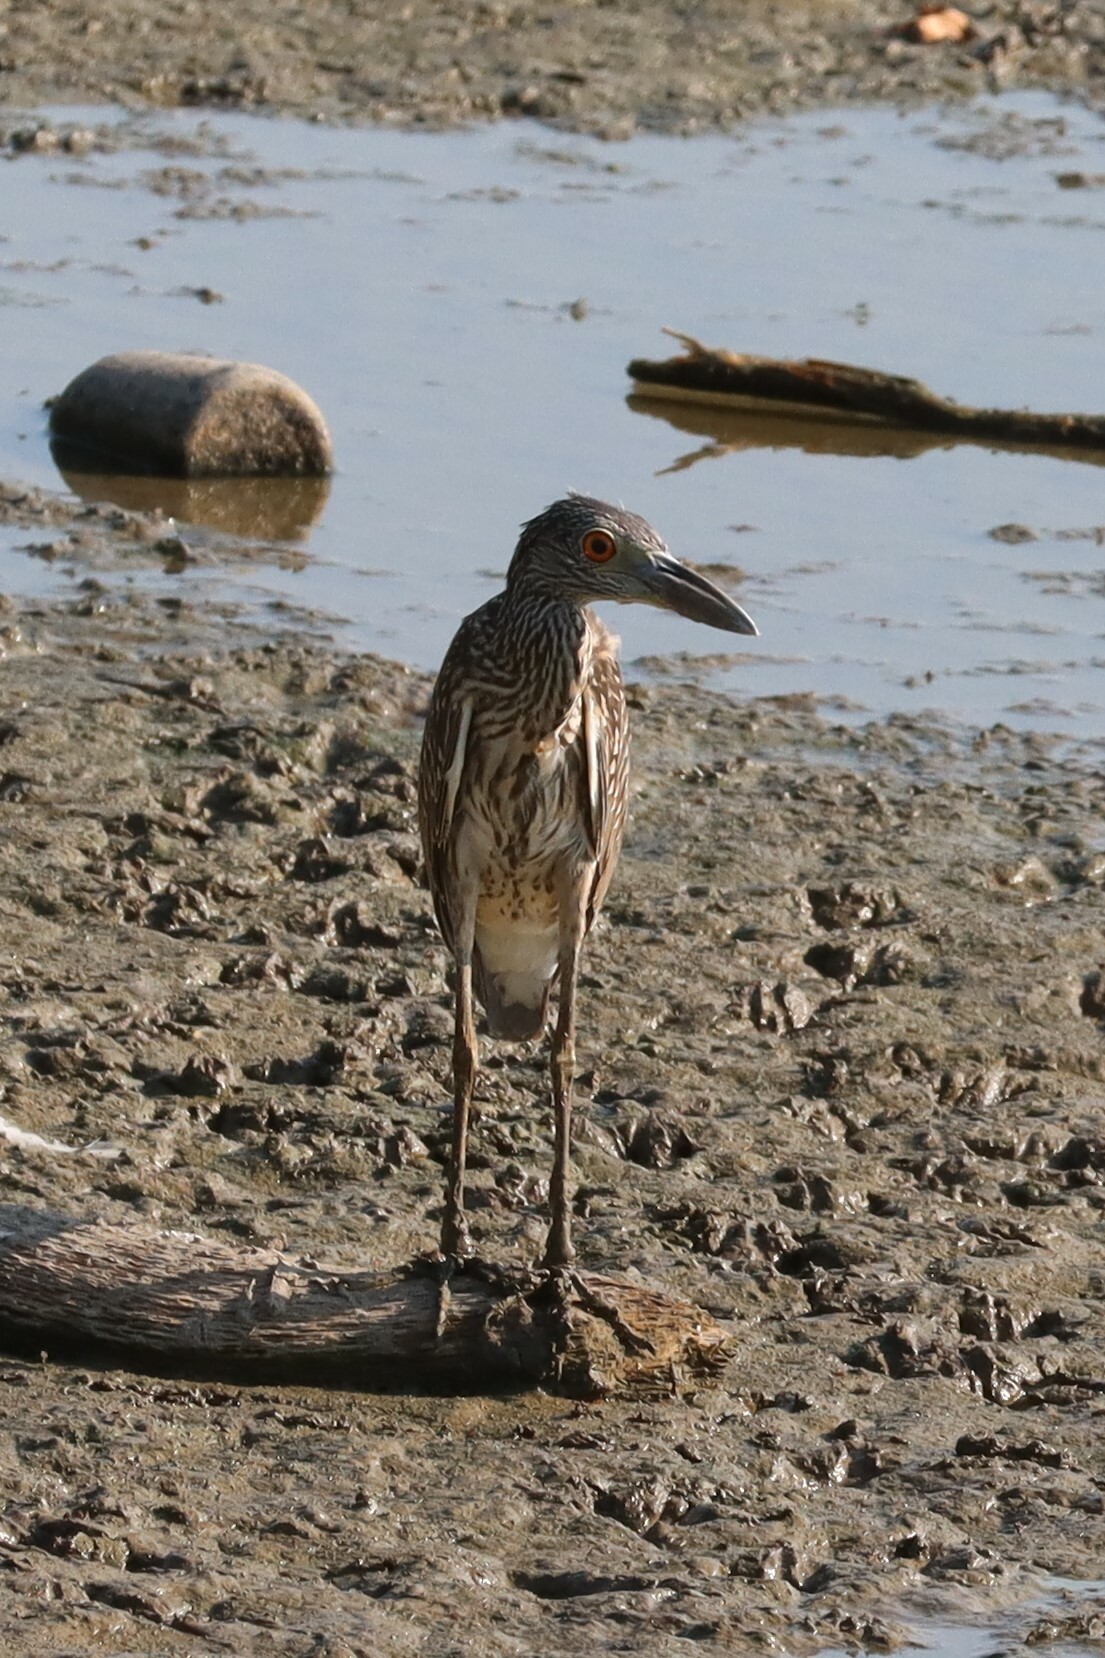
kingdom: Animalia
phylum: Chordata
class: Aves
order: Pelecaniformes
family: Ardeidae
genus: Nyctanassa
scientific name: Nyctanassa violacea
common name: Yellow-crowned night heron
